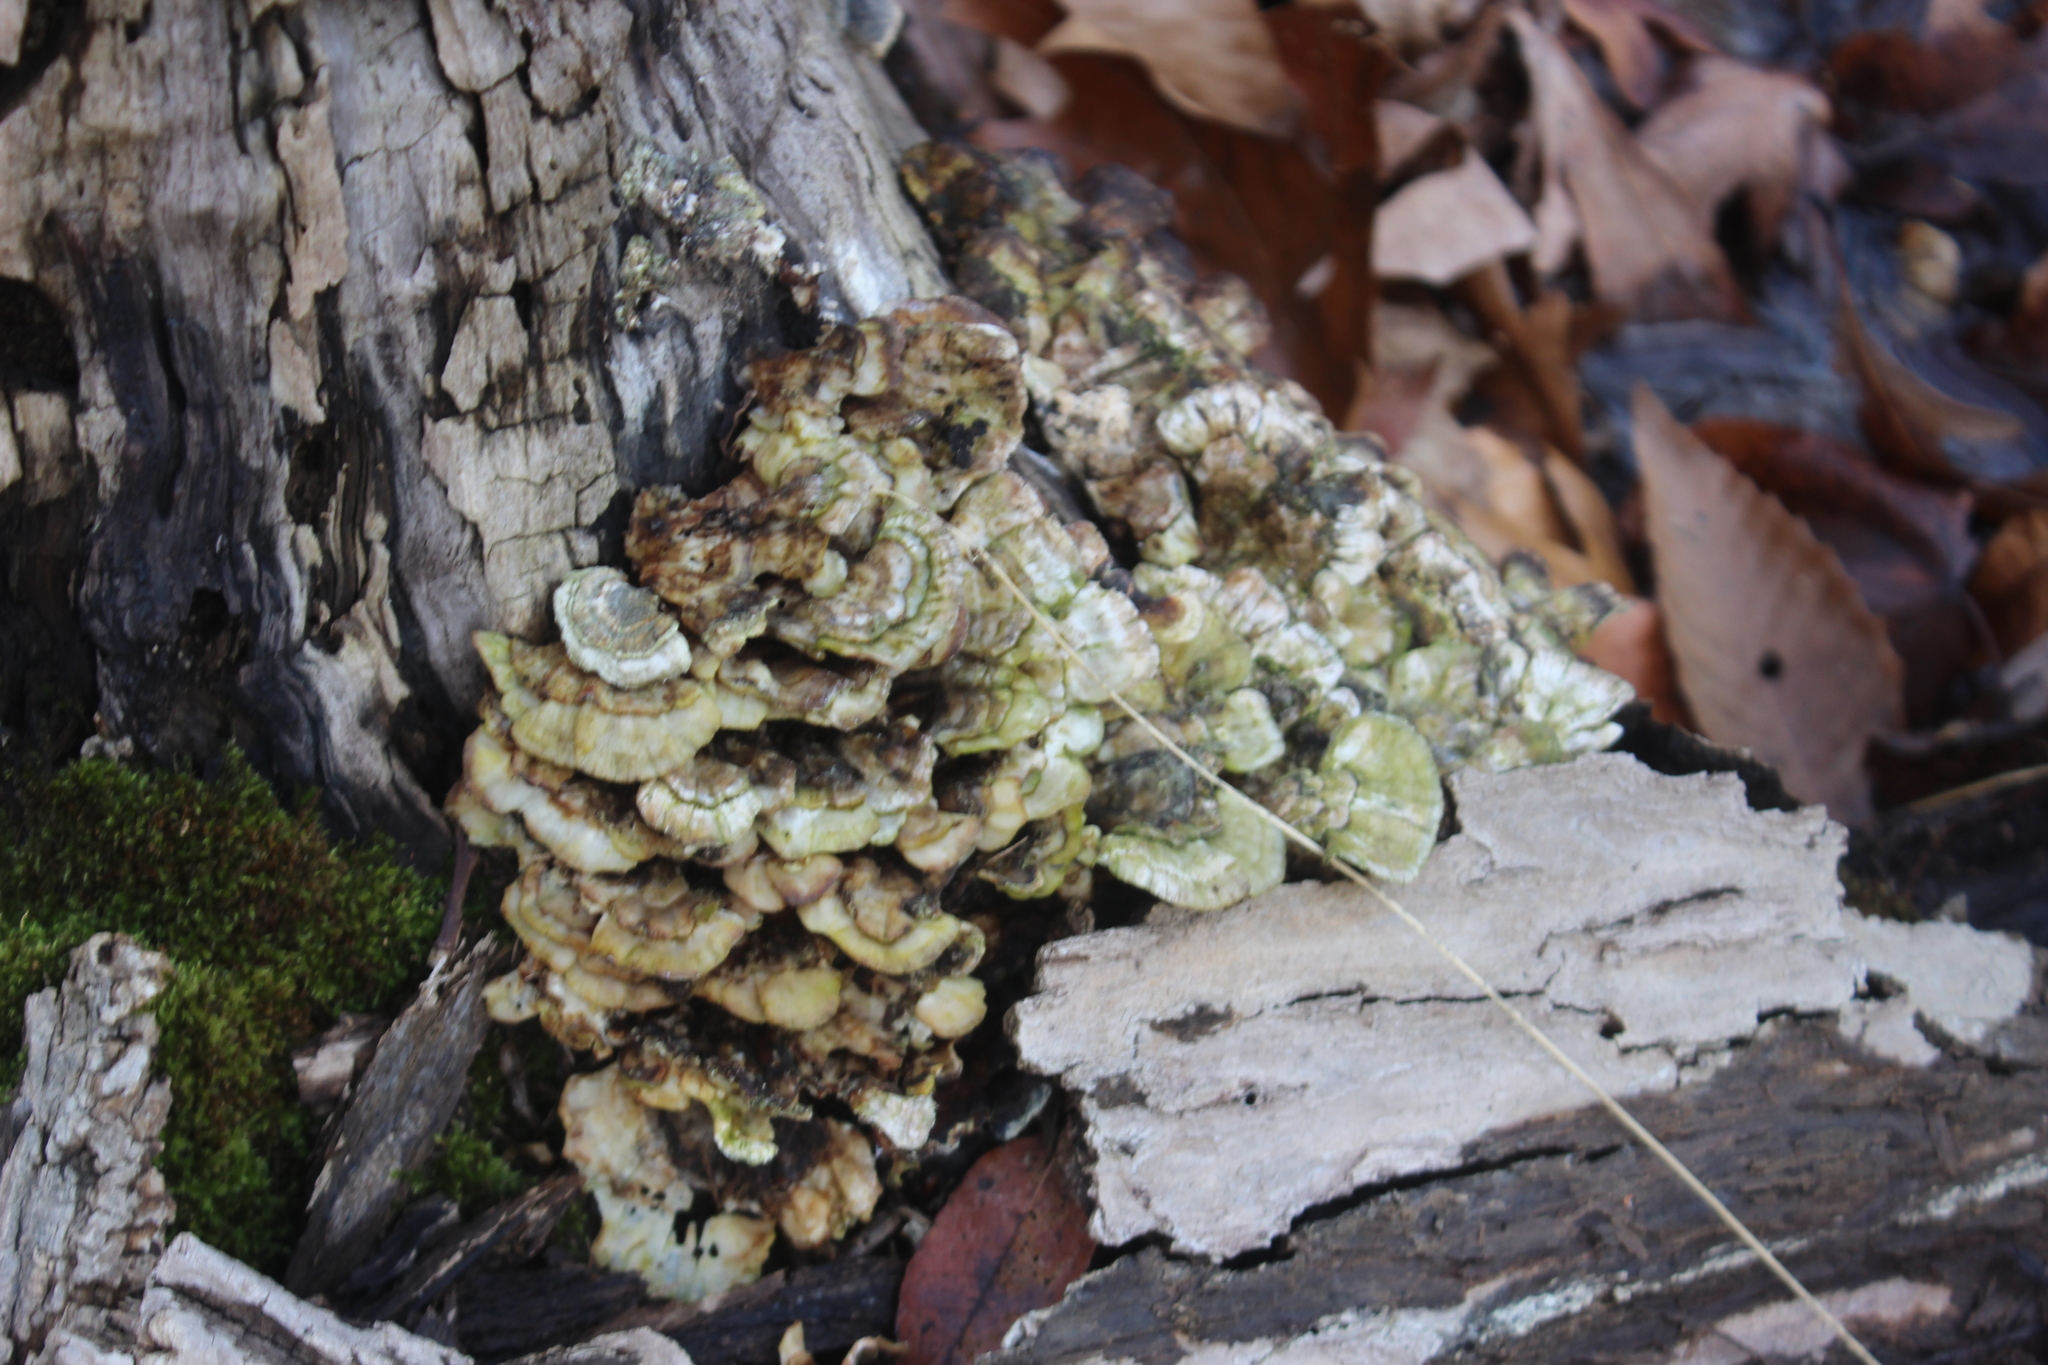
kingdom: Fungi
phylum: Basidiomycota
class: Agaricomycetes
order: Polyporales
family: Polyporaceae
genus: Trametes
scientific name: Trametes versicolor
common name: Turkeytail
